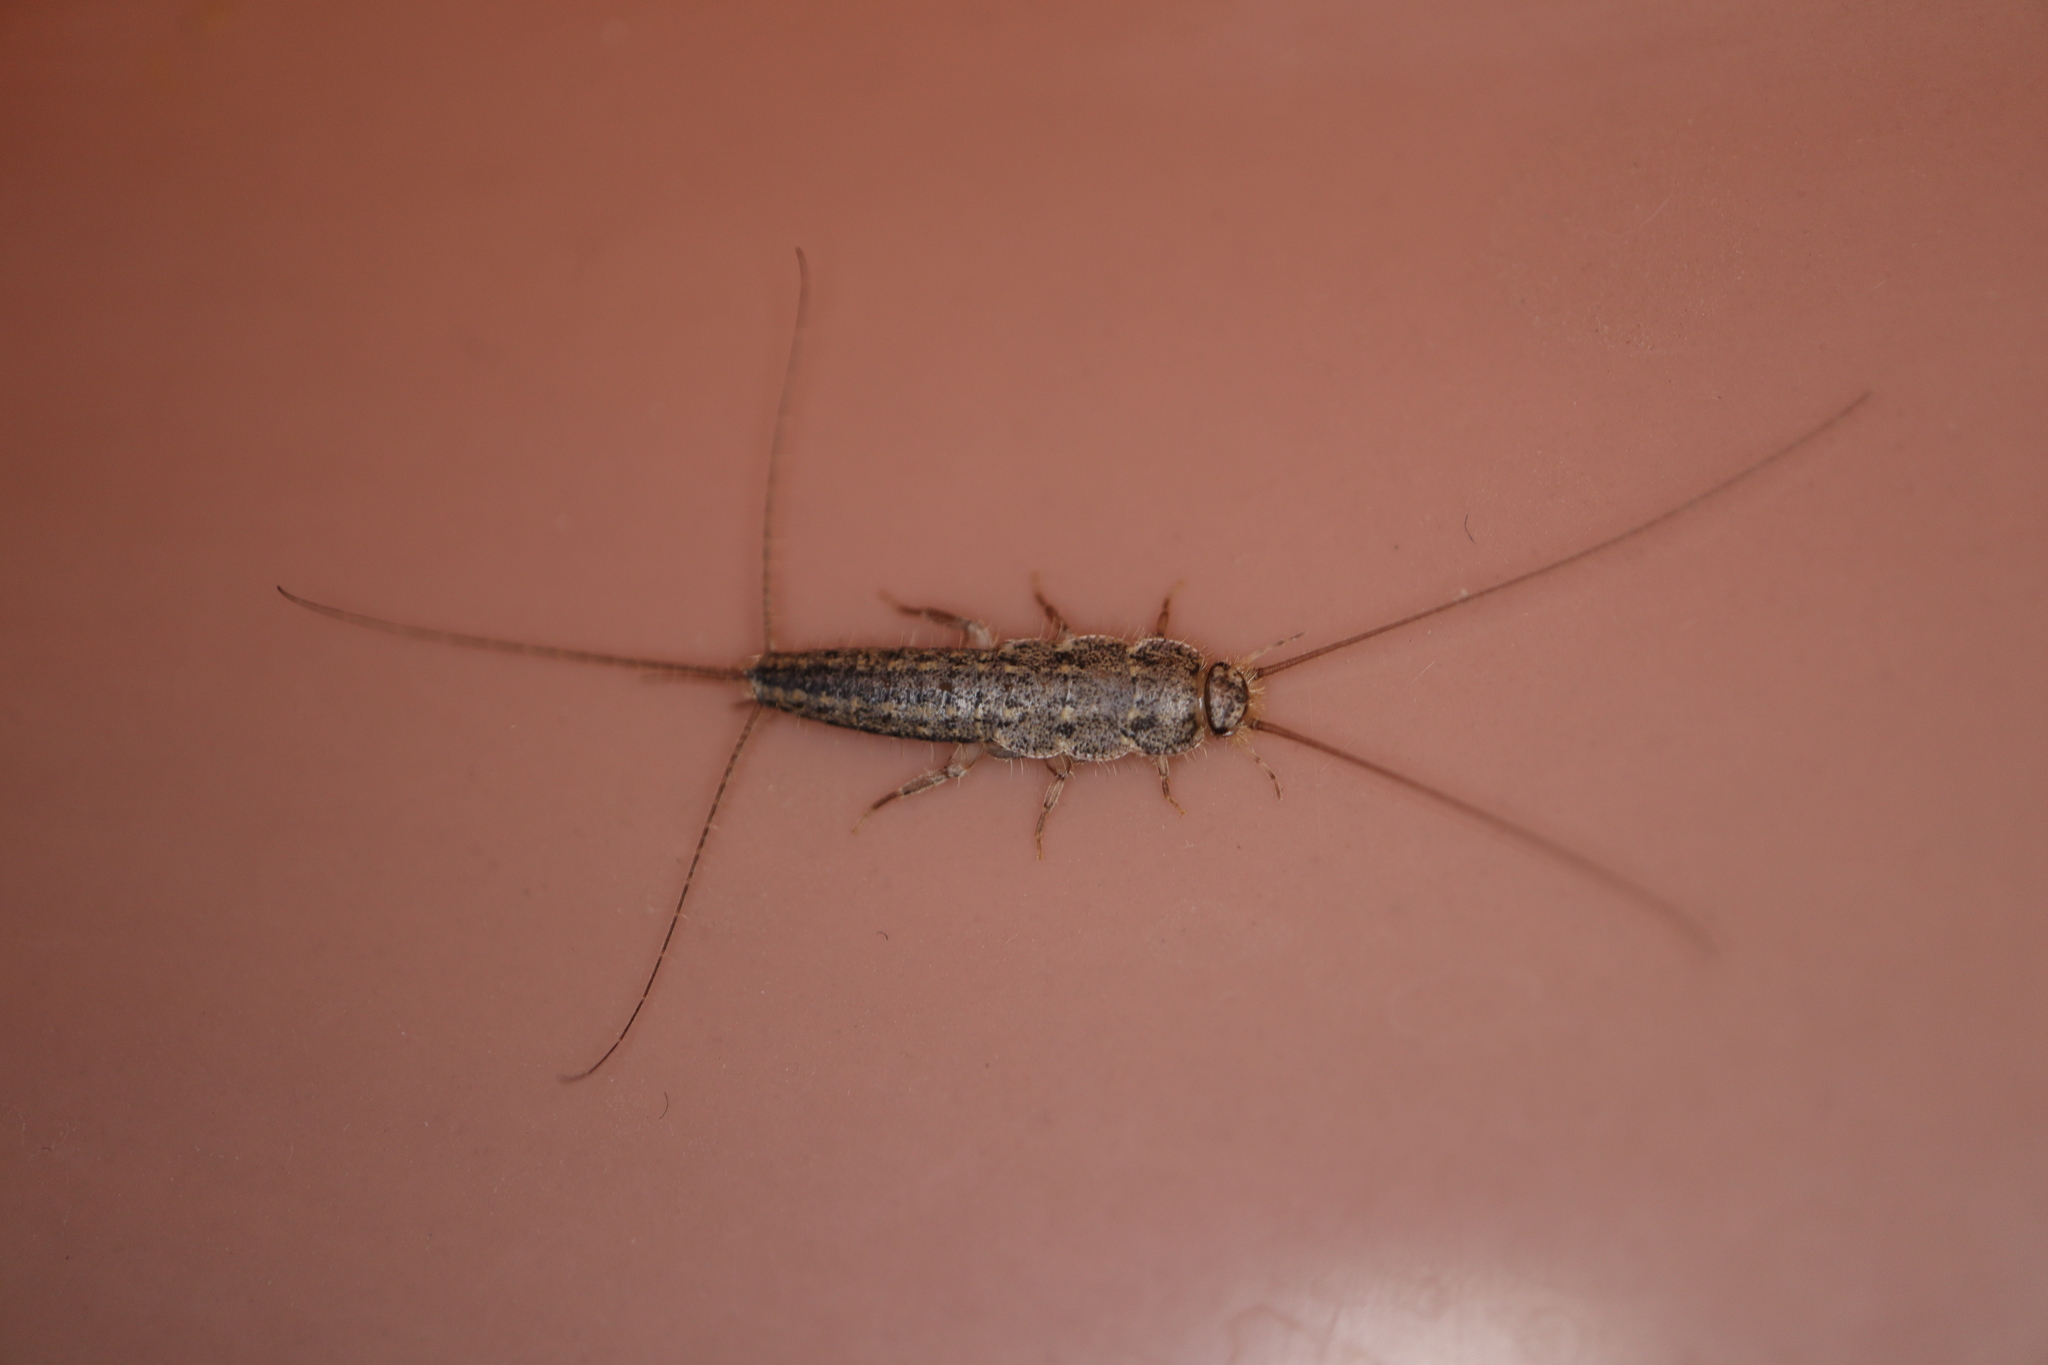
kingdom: Animalia
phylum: Arthropoda
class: Insecta
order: Zygentoma
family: Lepismatidae
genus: Ctenolepisma
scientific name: Ctenolepisma lineata
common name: Four-lined silverfish
